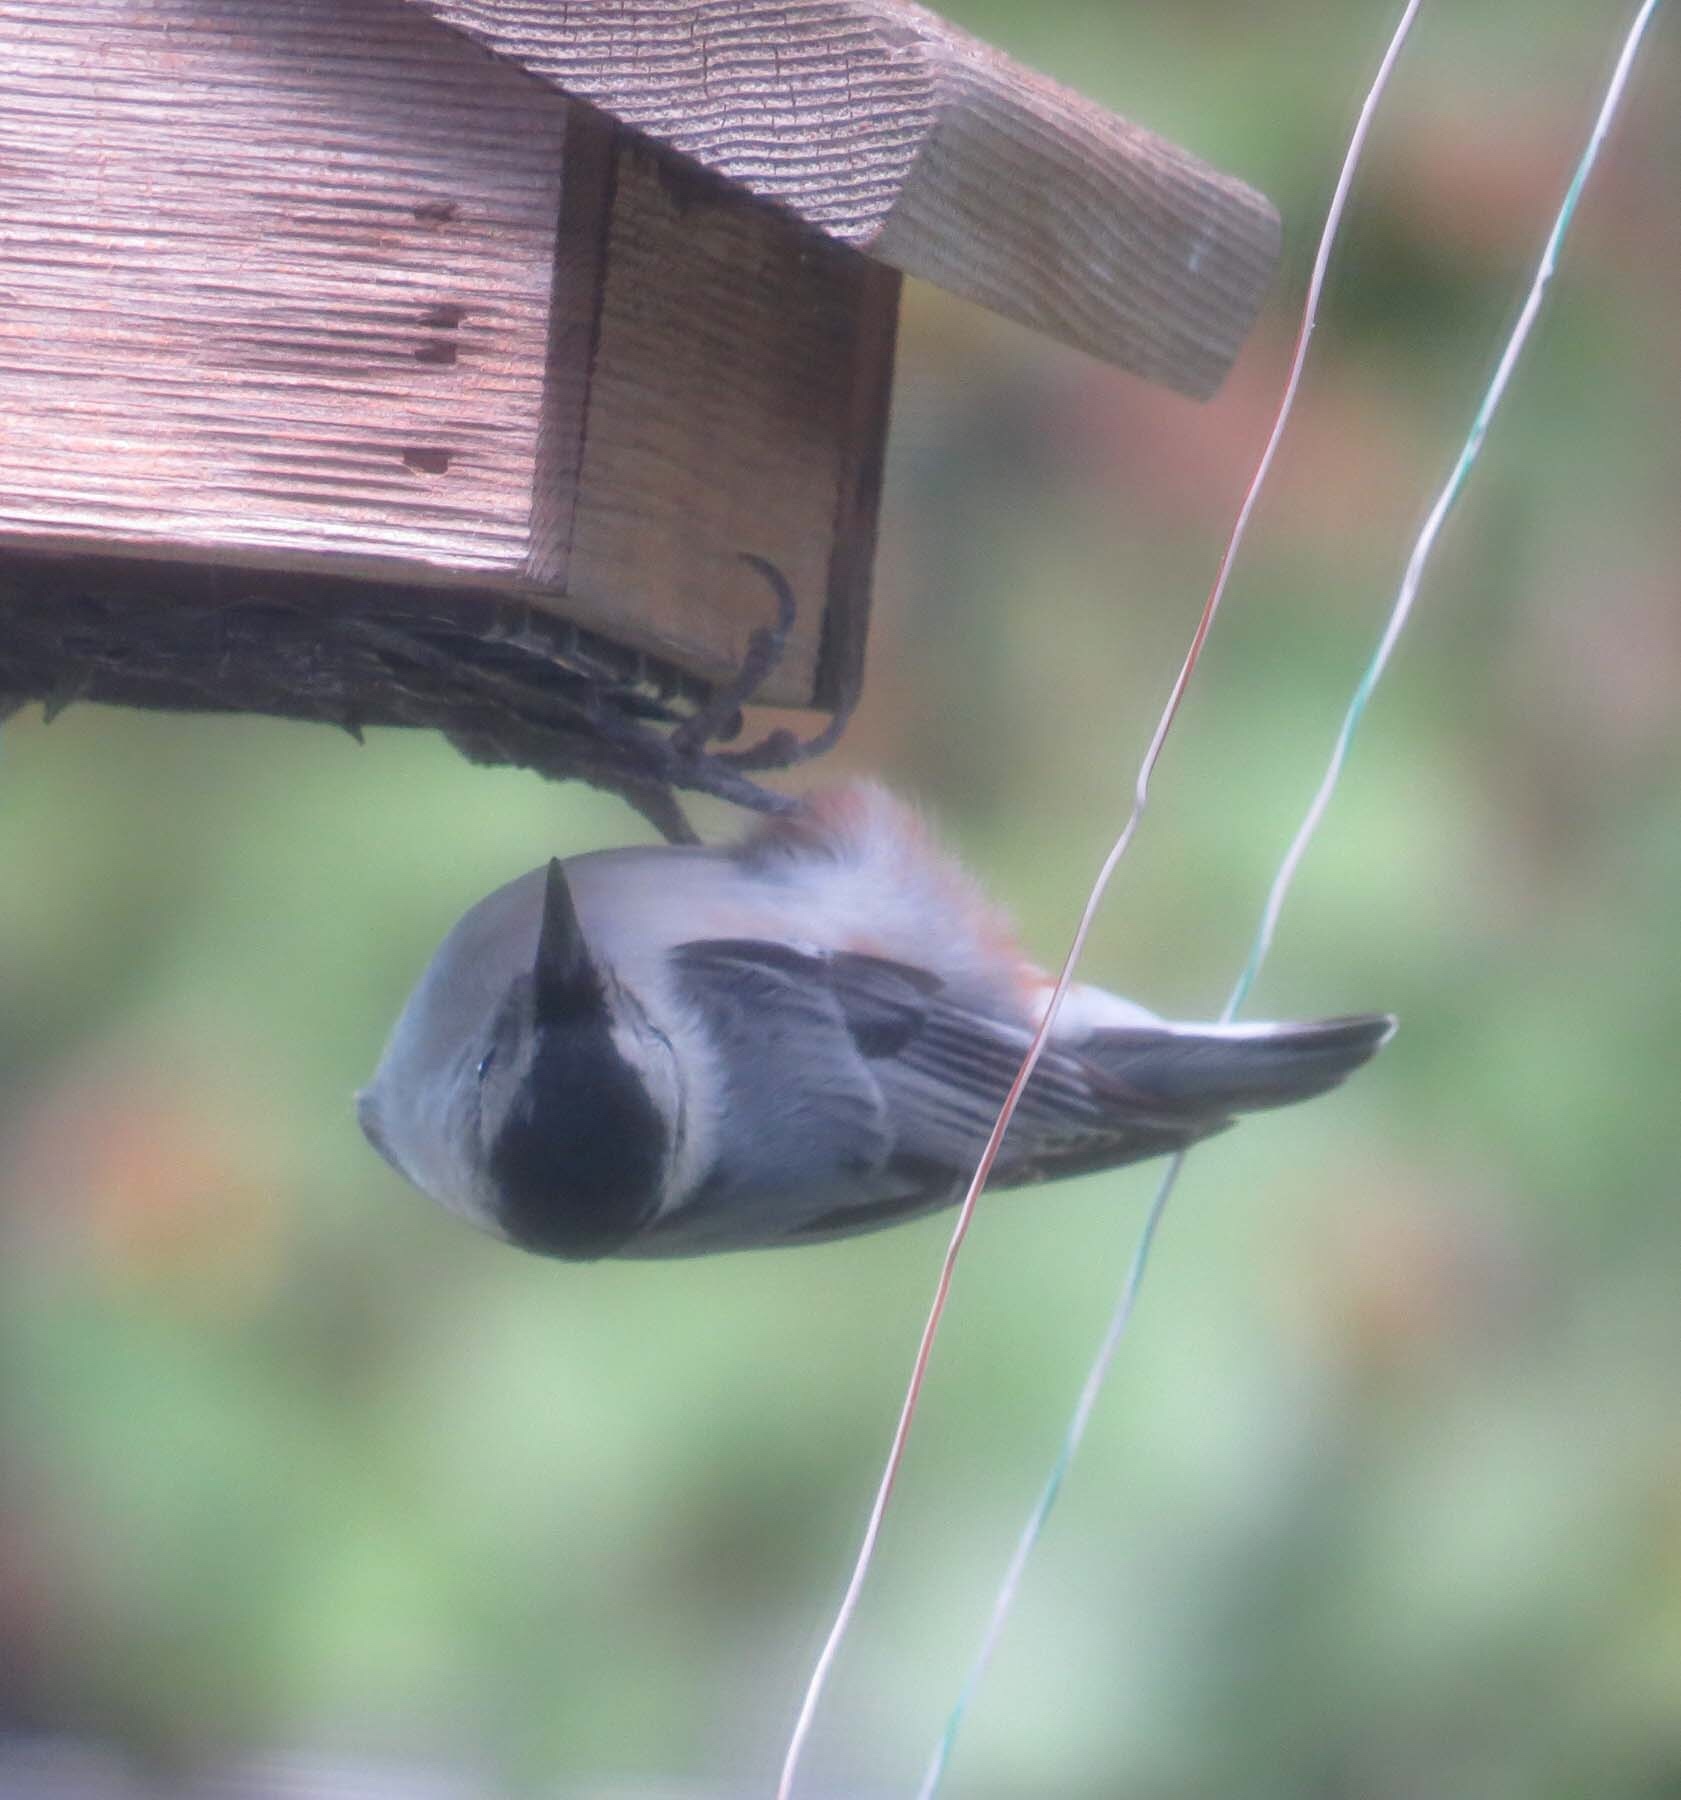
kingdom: Animalia
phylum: Chordata
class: Aves
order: Passeriformes
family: Sittidae
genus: Sitta
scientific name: Sitta carolinensis
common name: White-breasted nuthatch
